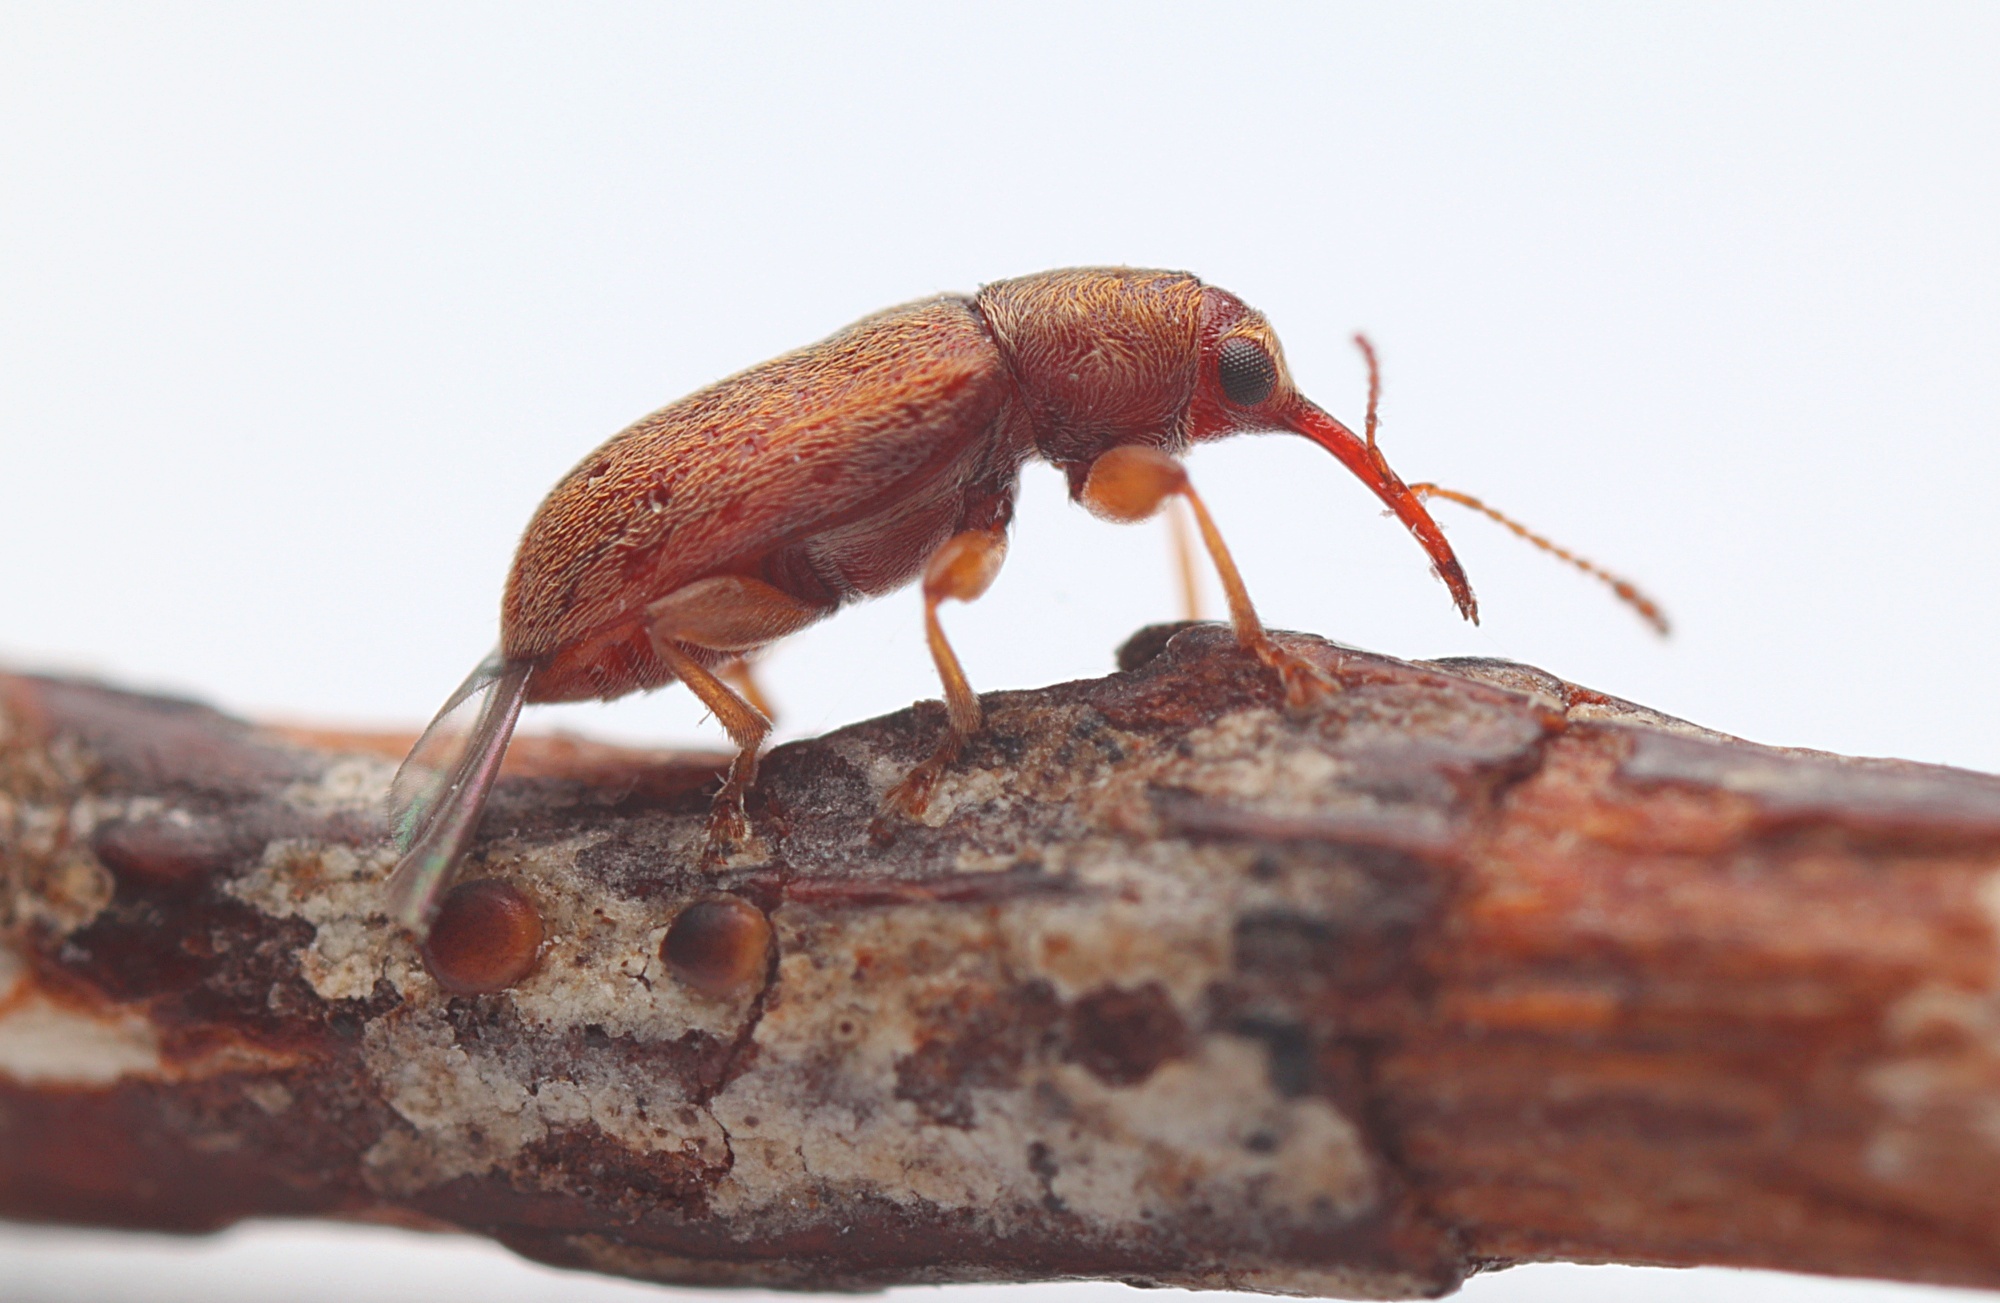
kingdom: Animalia
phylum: Arthropoda
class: Insecta
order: Coleoptera
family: Nemonychidae
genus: Rhinorhynchus
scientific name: Rhinorhynchus rufulus
